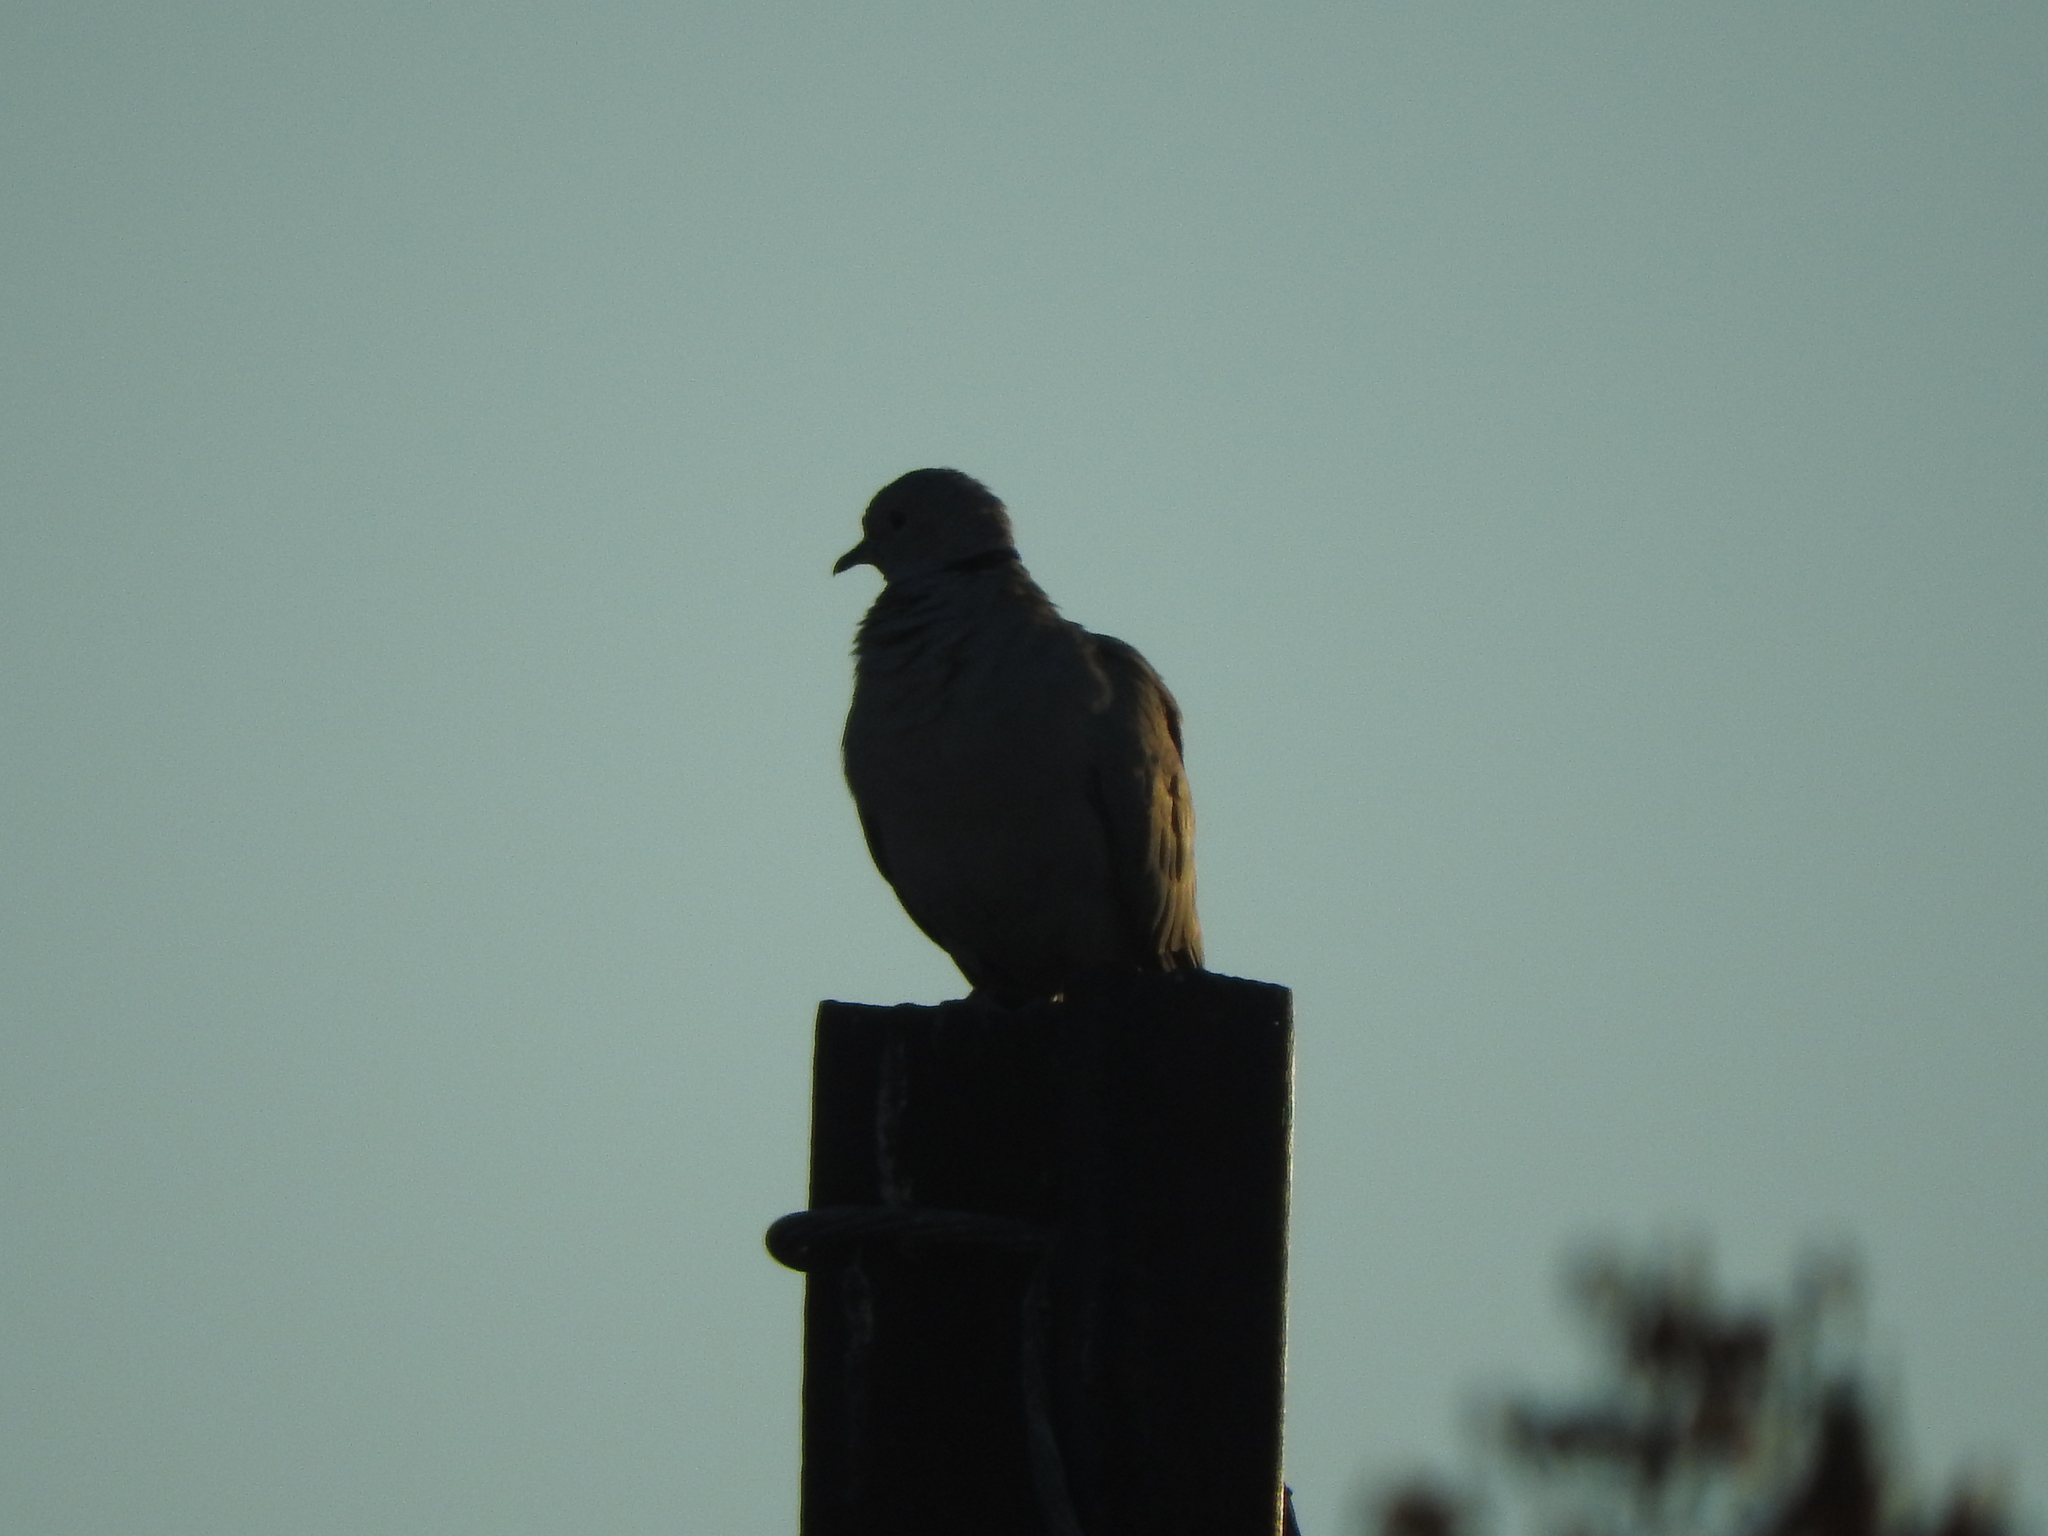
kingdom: Animalia
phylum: Chordata
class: Aves
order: Columbiformes
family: Columbidae
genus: Streptopelia
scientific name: Streptopelia decaocto
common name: Eurasian collared dove
